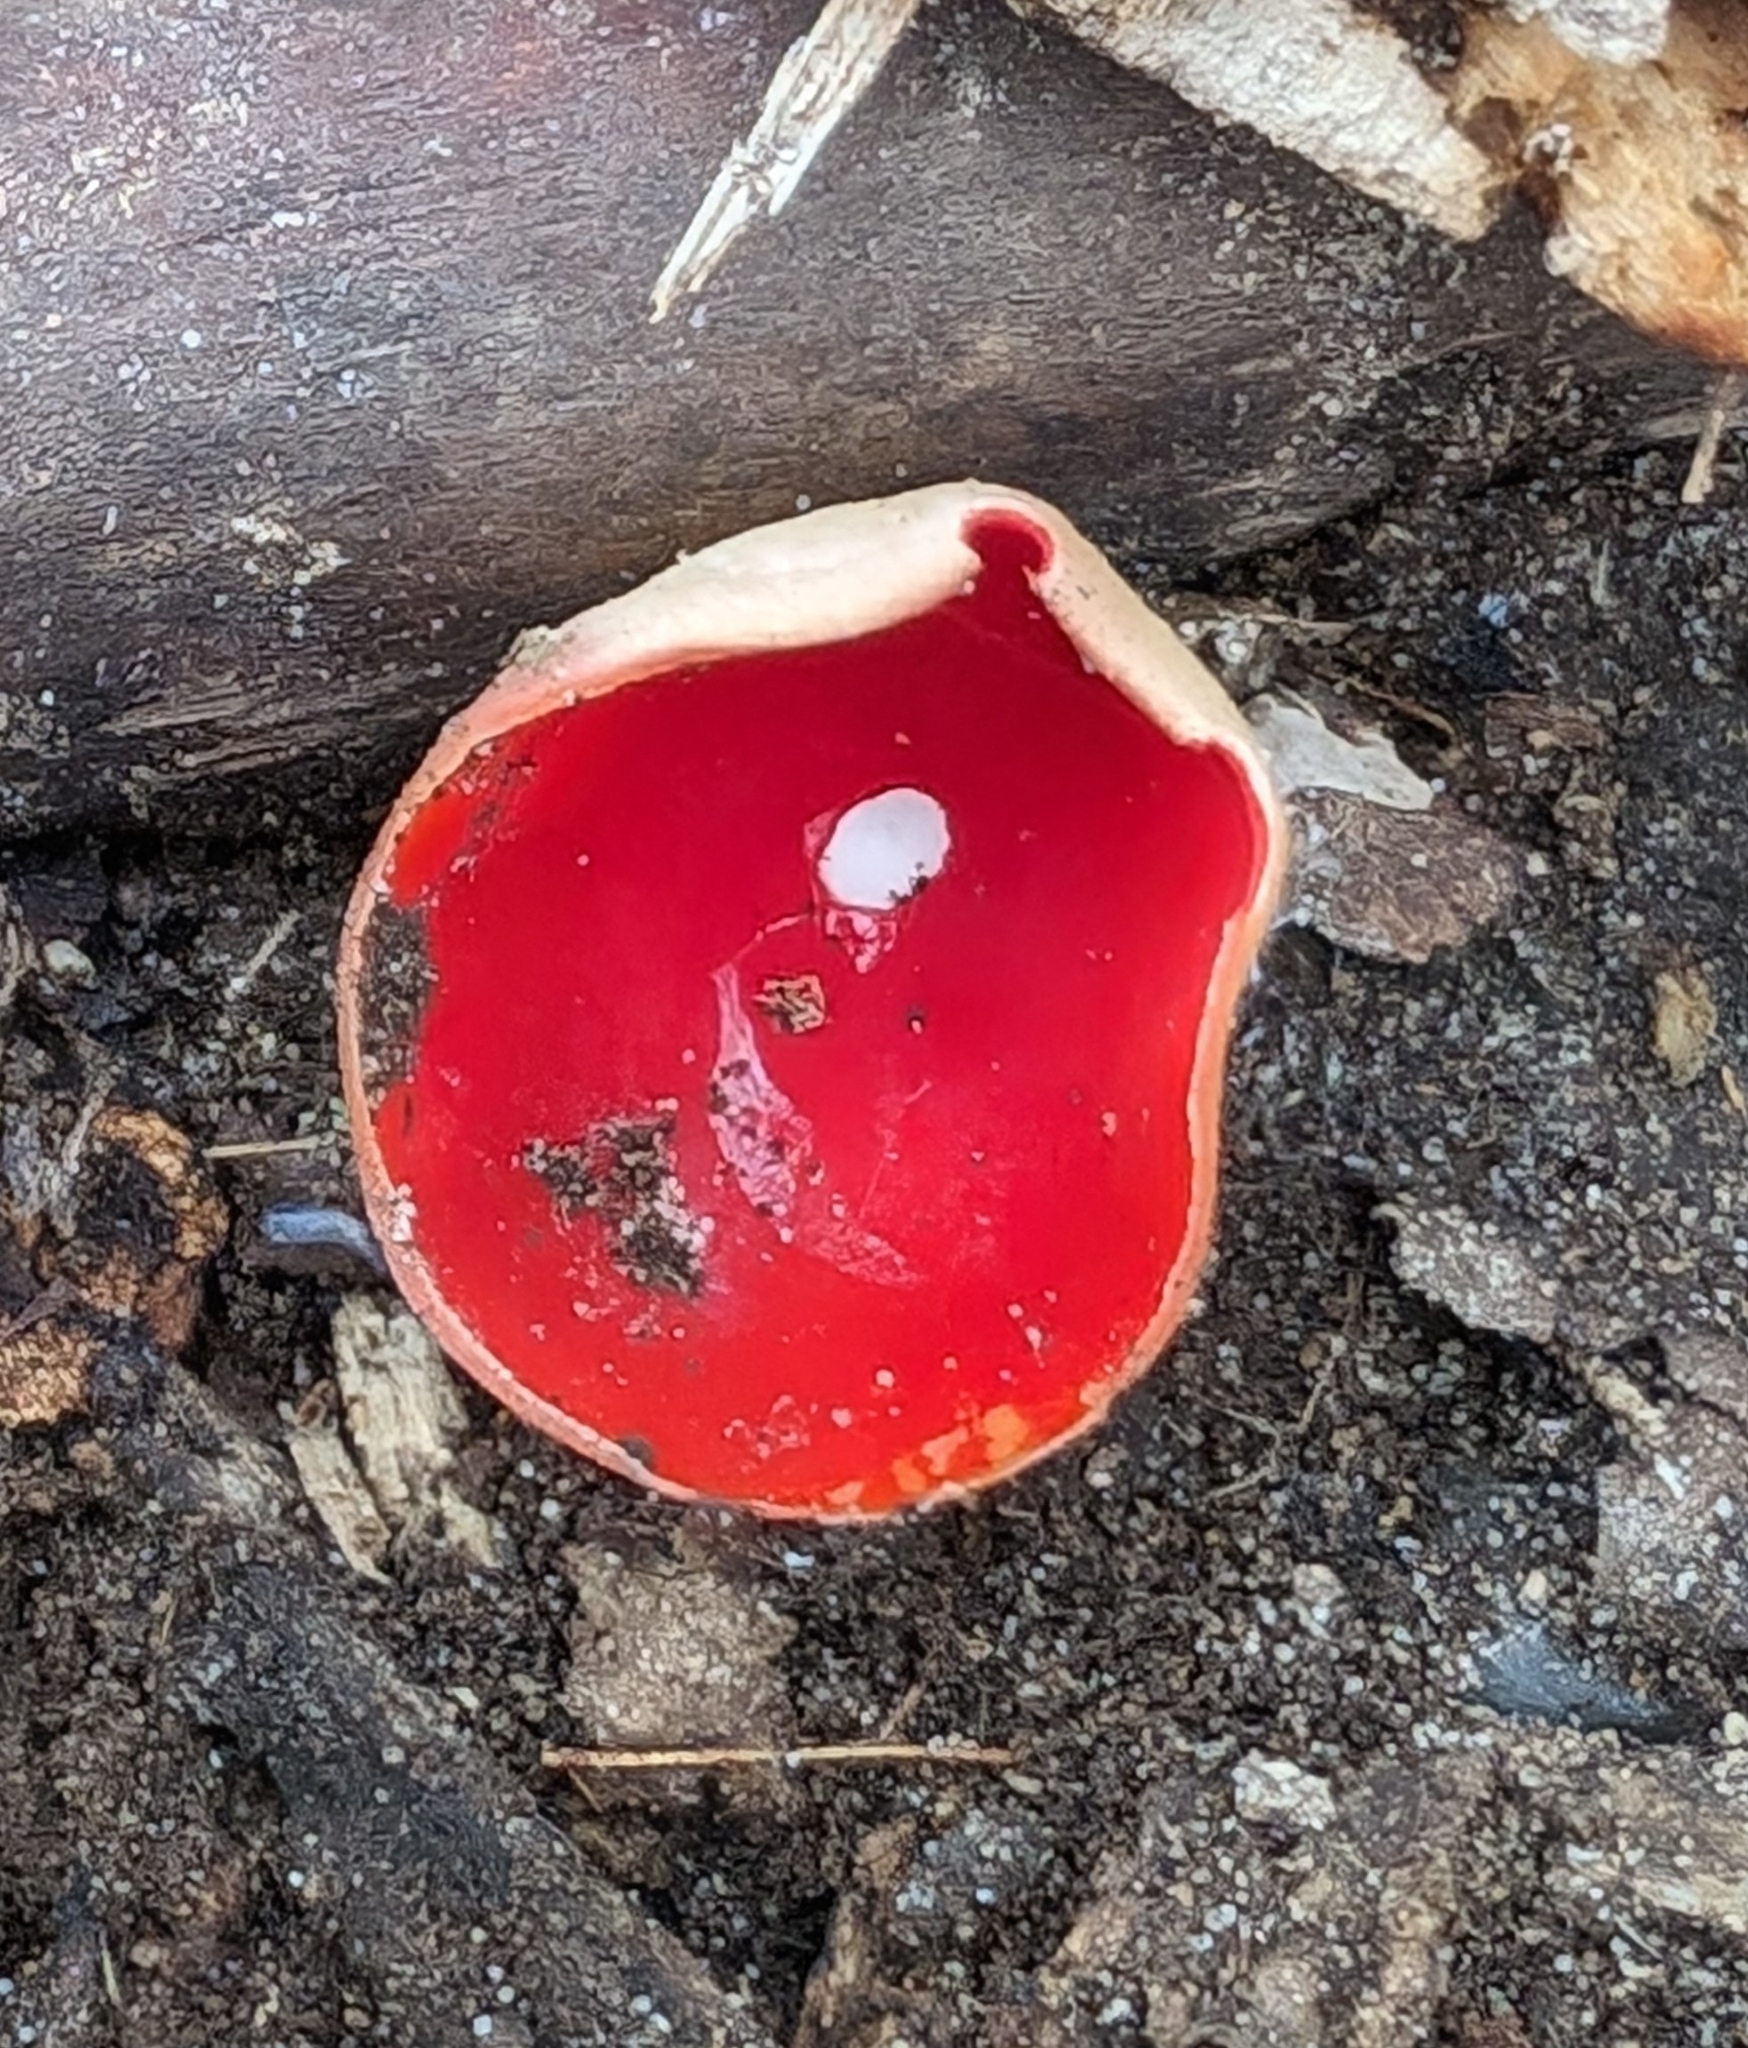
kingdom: Fungi
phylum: Ascomycota
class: Pezizomycetes
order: Pezizales
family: Sarcoscyphaceae
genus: Sarcoscypha
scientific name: Sarcoscypha austriaca
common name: Scarlet elfcup
